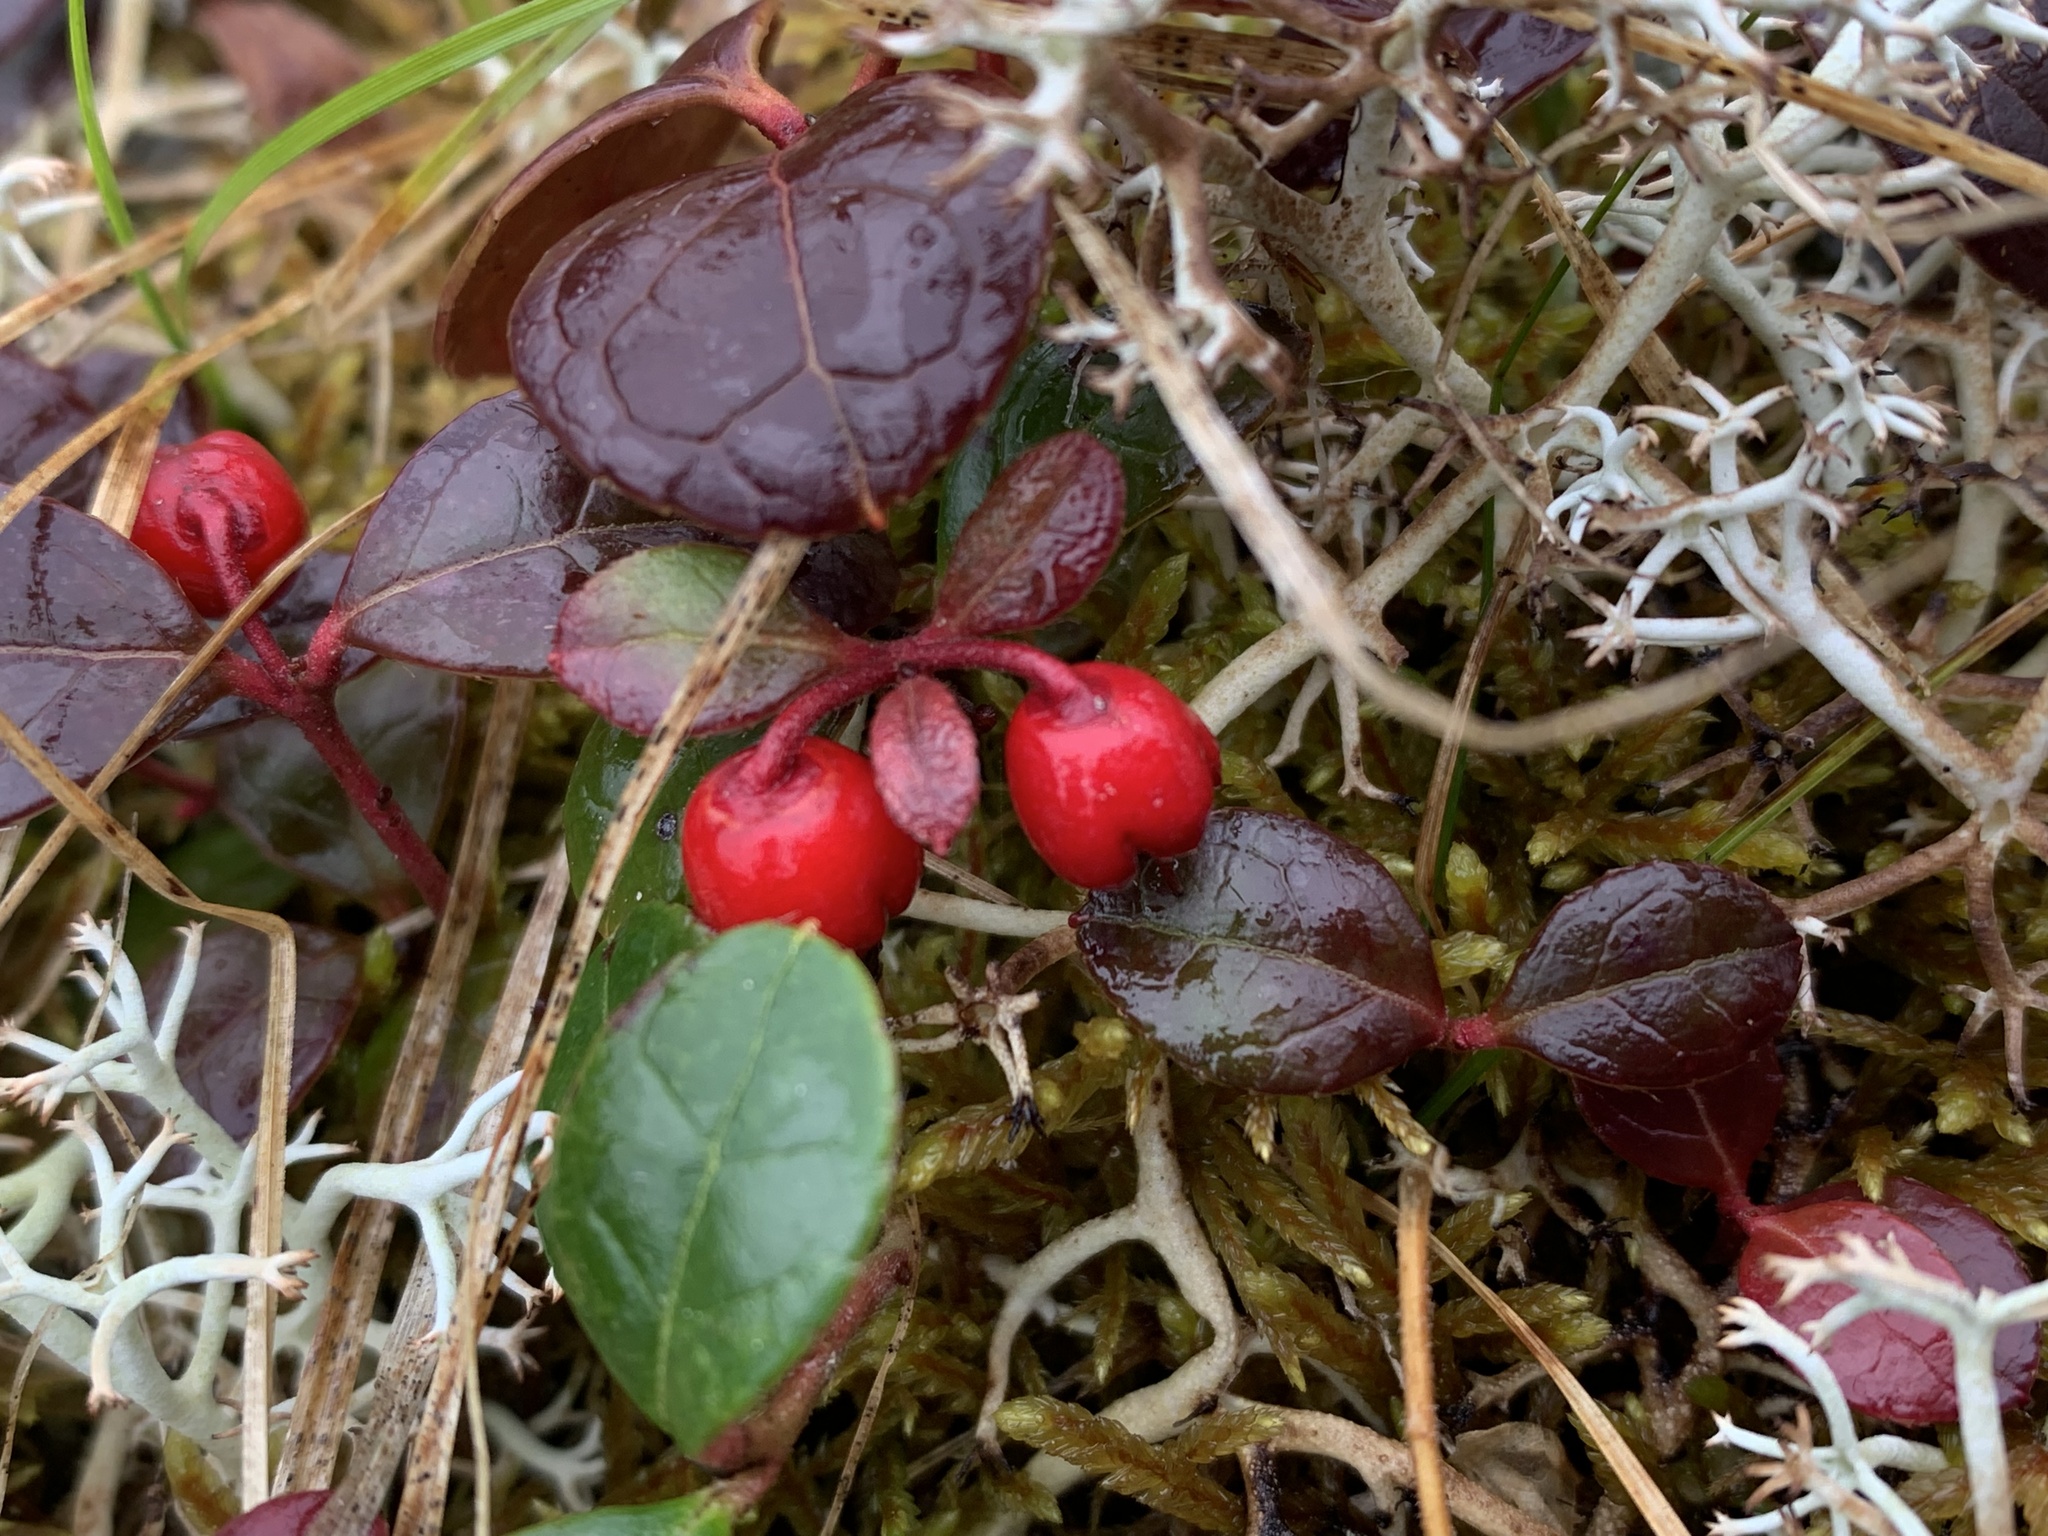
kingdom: Plantae
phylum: Tracheophyta
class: Magnoliopsida
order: Ericales
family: Ericaceae
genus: Gaultheria
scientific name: Gaultheria procumbens
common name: Checkerberry
